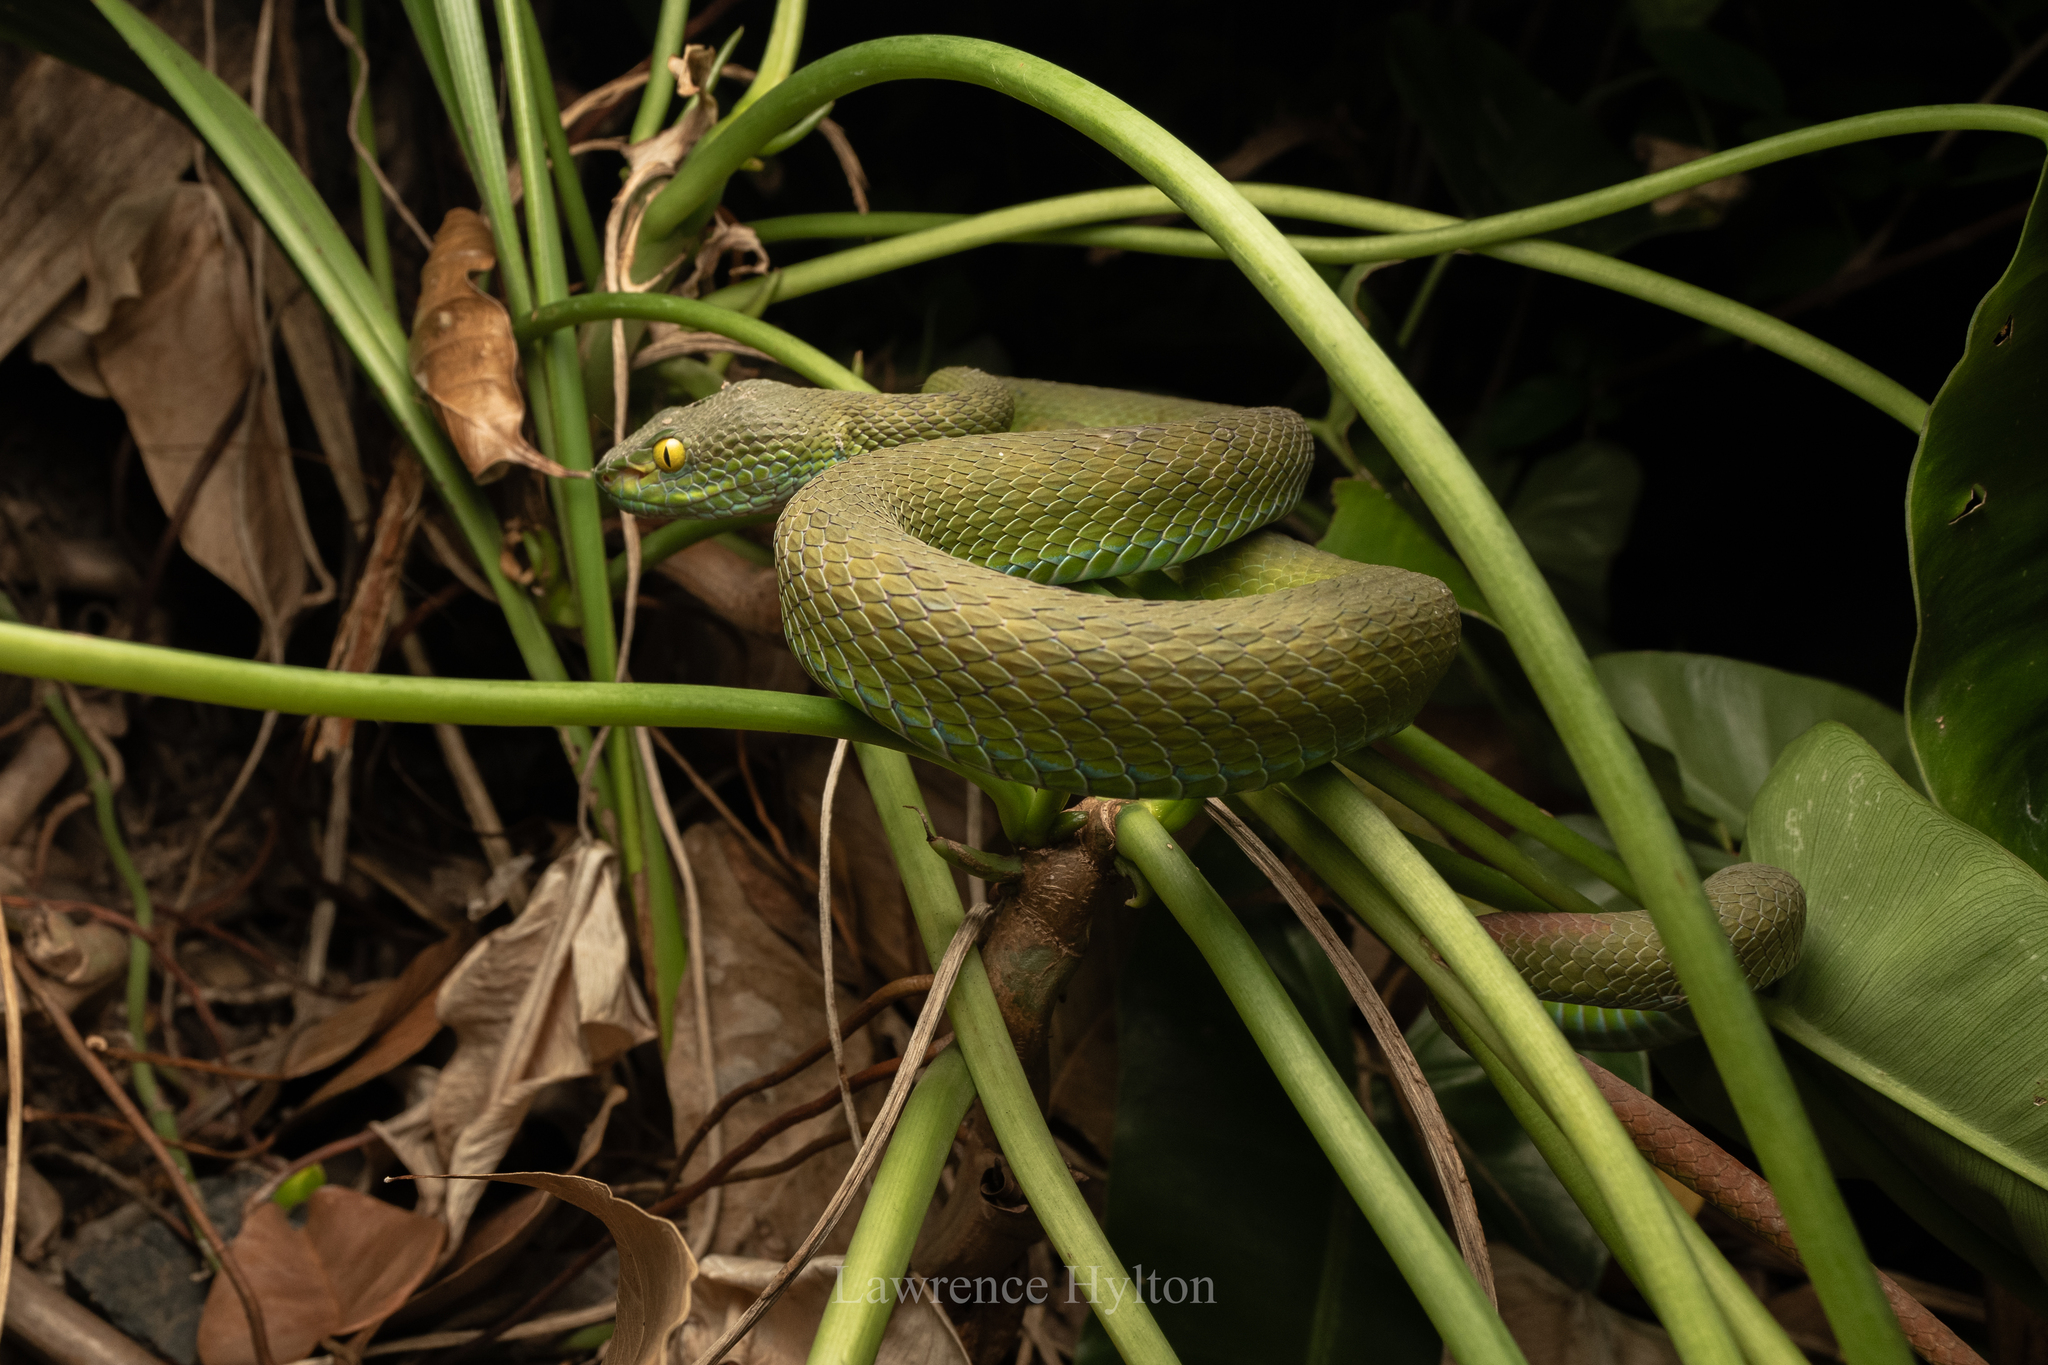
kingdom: Animalia
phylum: Chordata
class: Squamata
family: Viperidae
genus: Trimeresurus
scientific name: Trimeresurus macrops
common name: Kramer's pit viper
